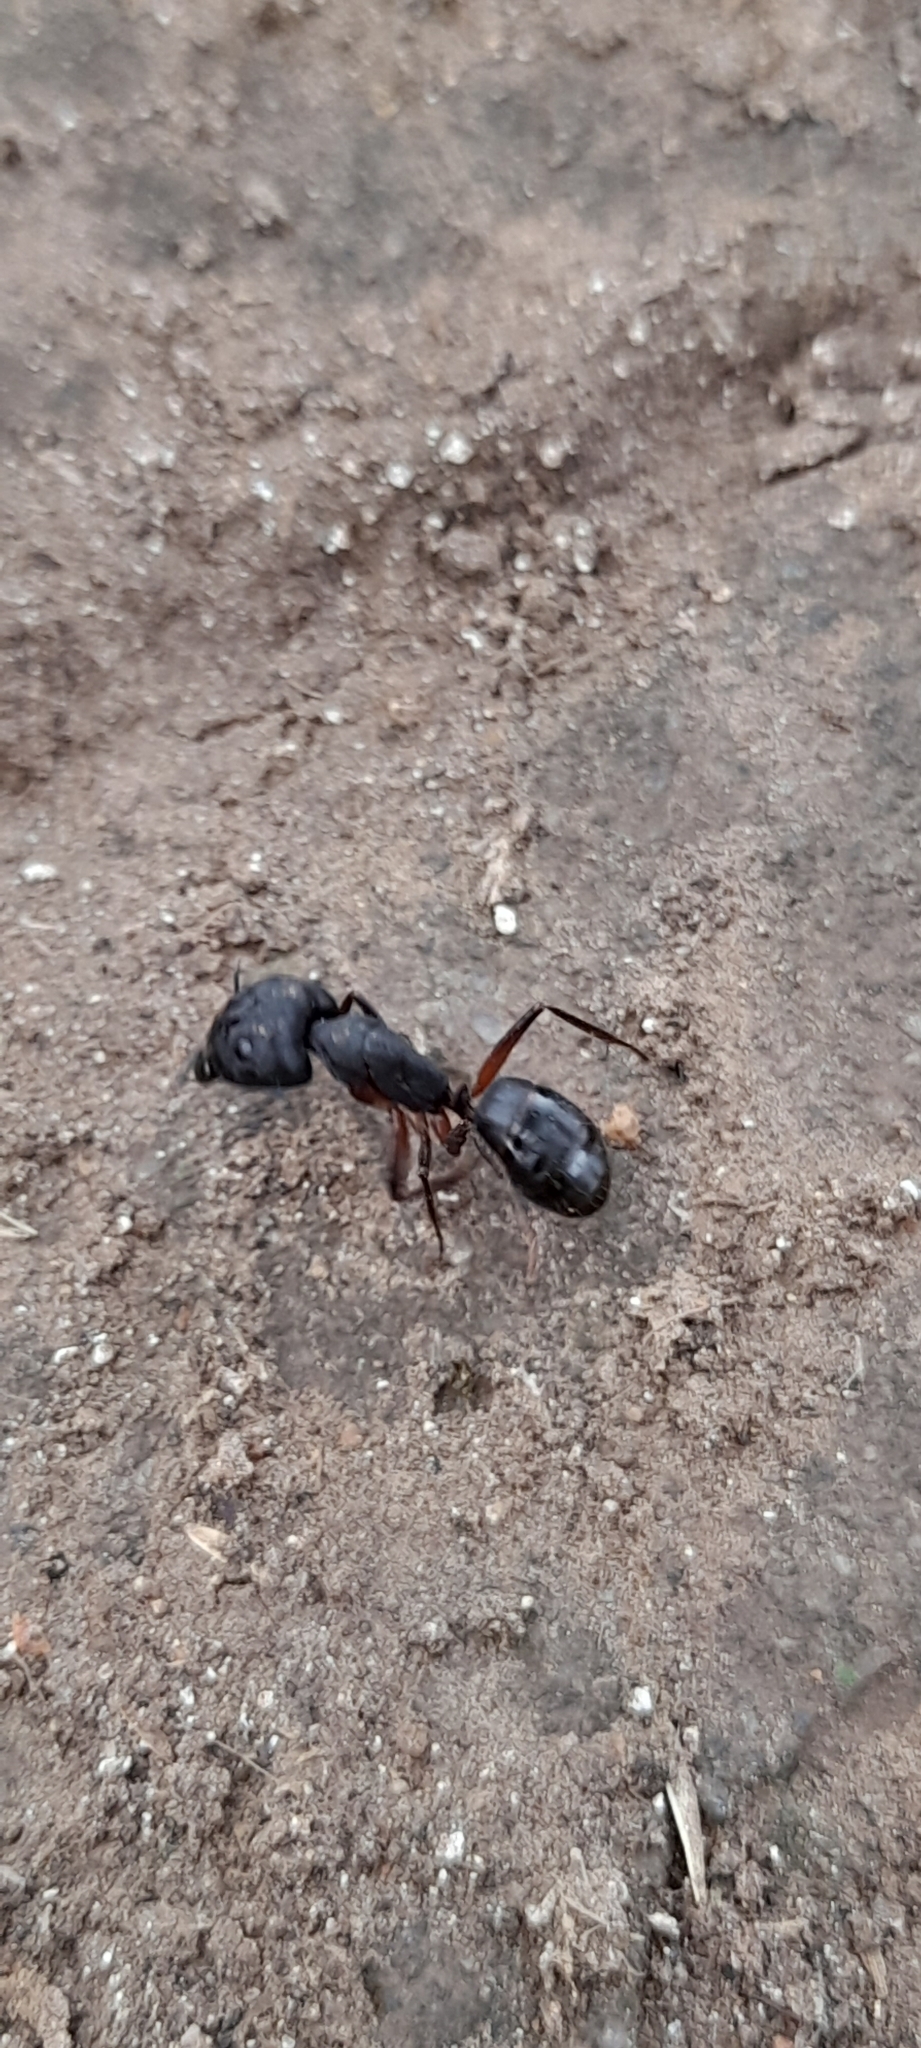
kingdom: Animalia
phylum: Arthropoda
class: Insecta
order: Hymenoptera
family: Formicidae
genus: Camponotus
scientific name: Camponotus compressus
